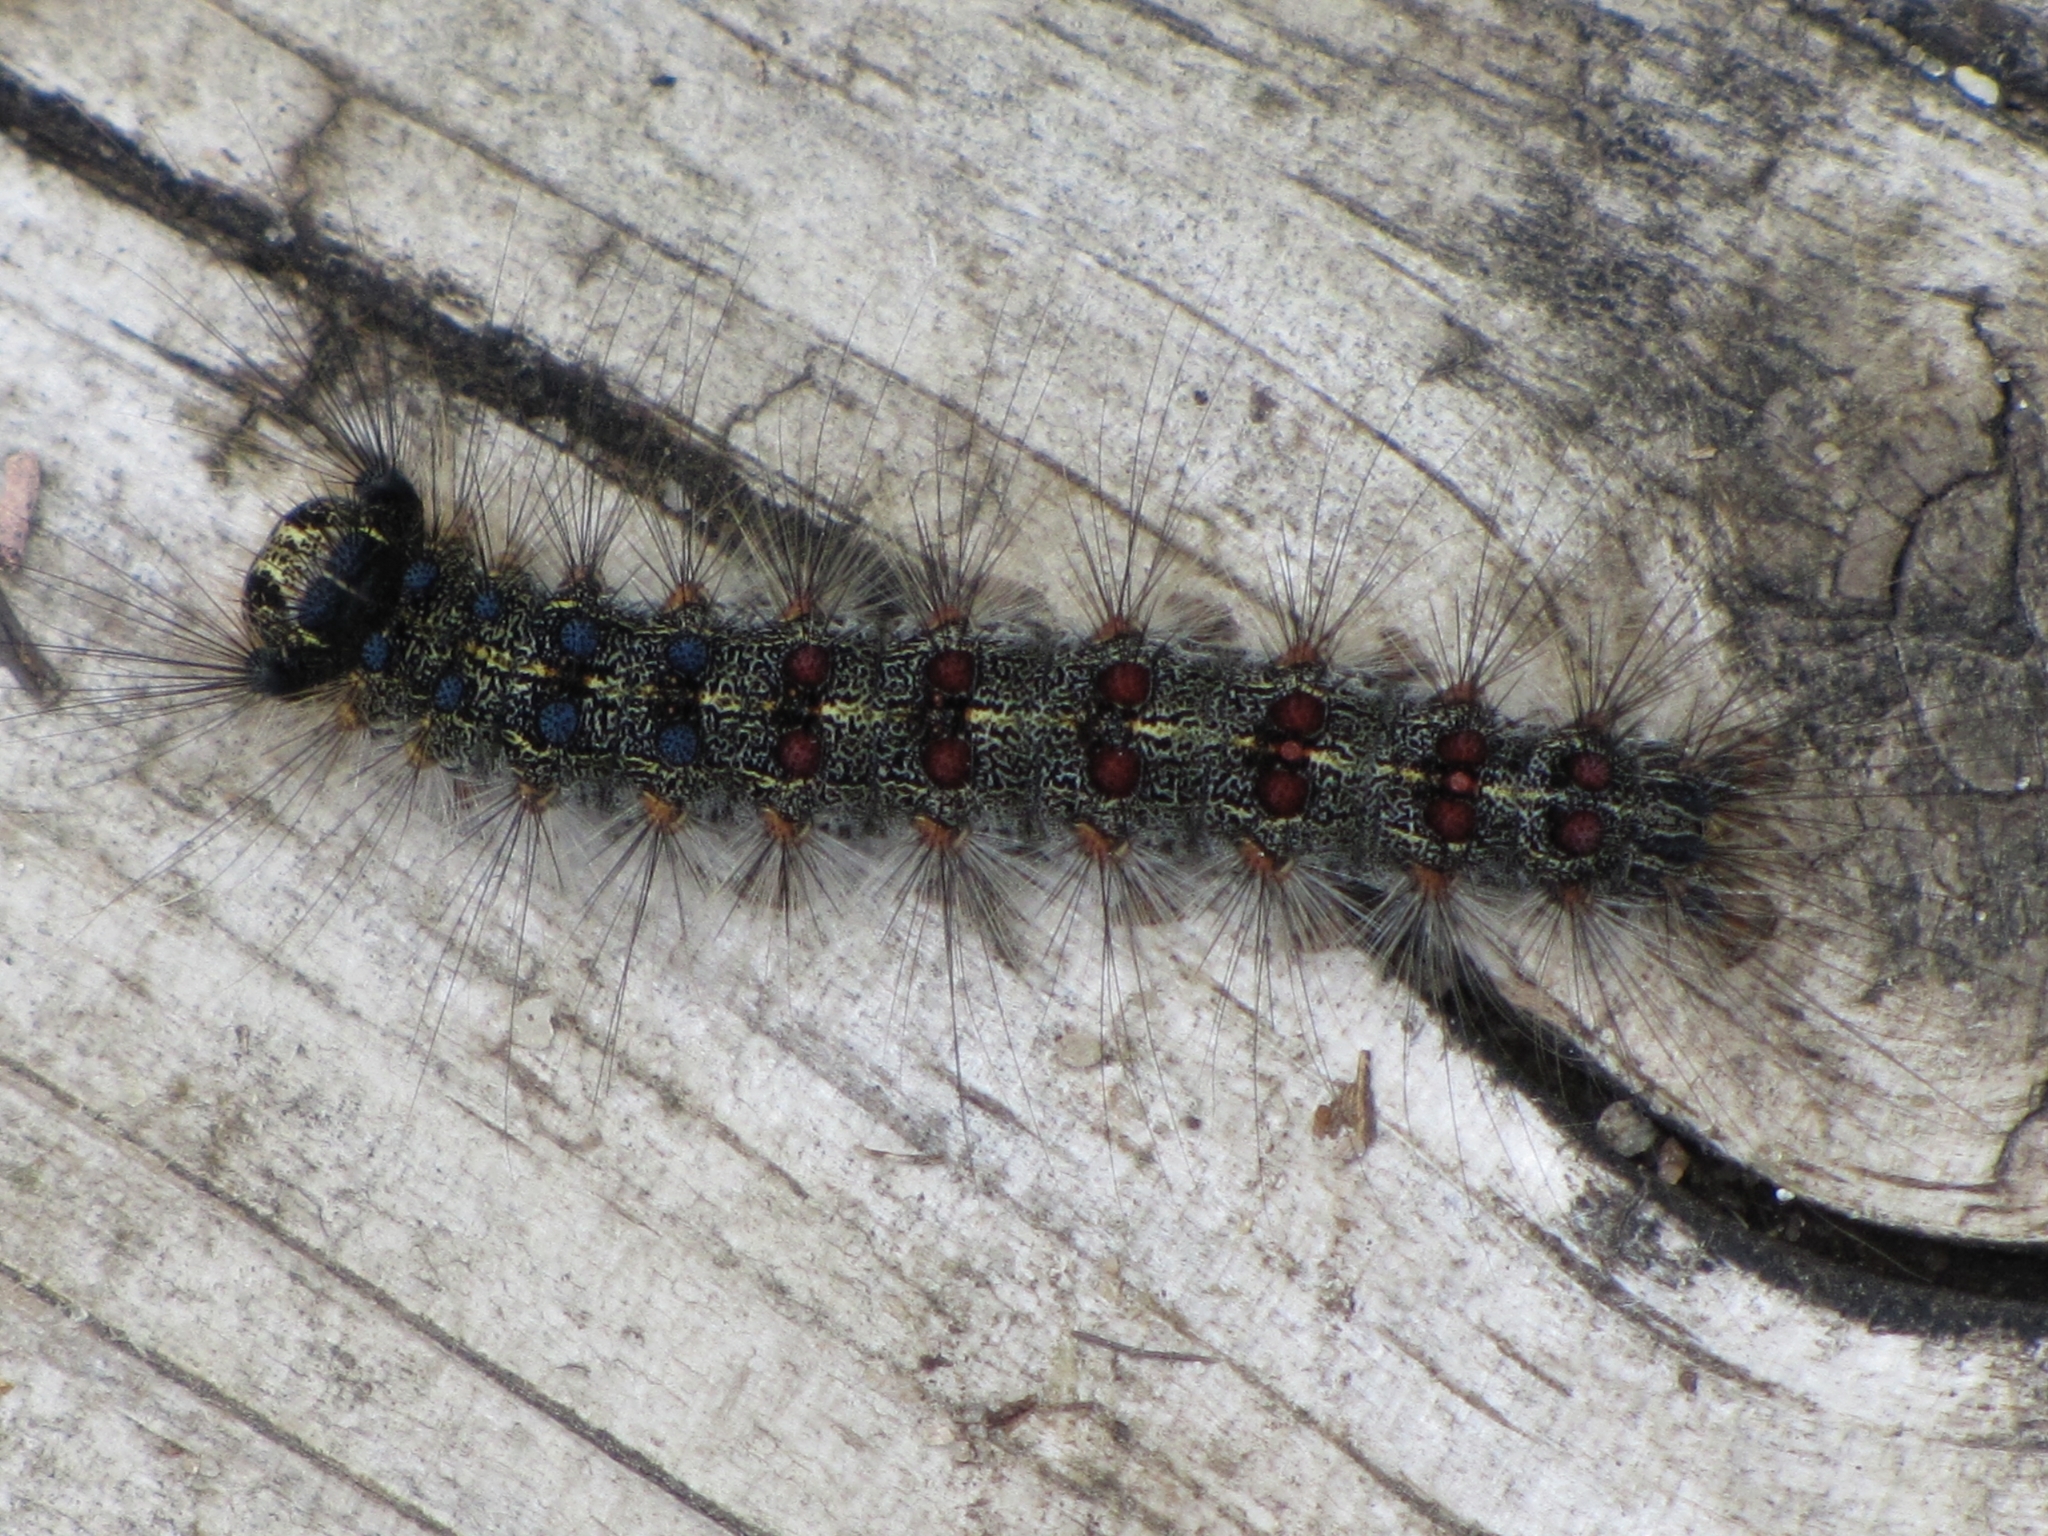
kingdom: Animalia
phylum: Arthropoda
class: Insecta
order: Lepidoptera
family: Erebidae
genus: Lymantria
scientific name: Lymantria dispar
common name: Gypsy moth
